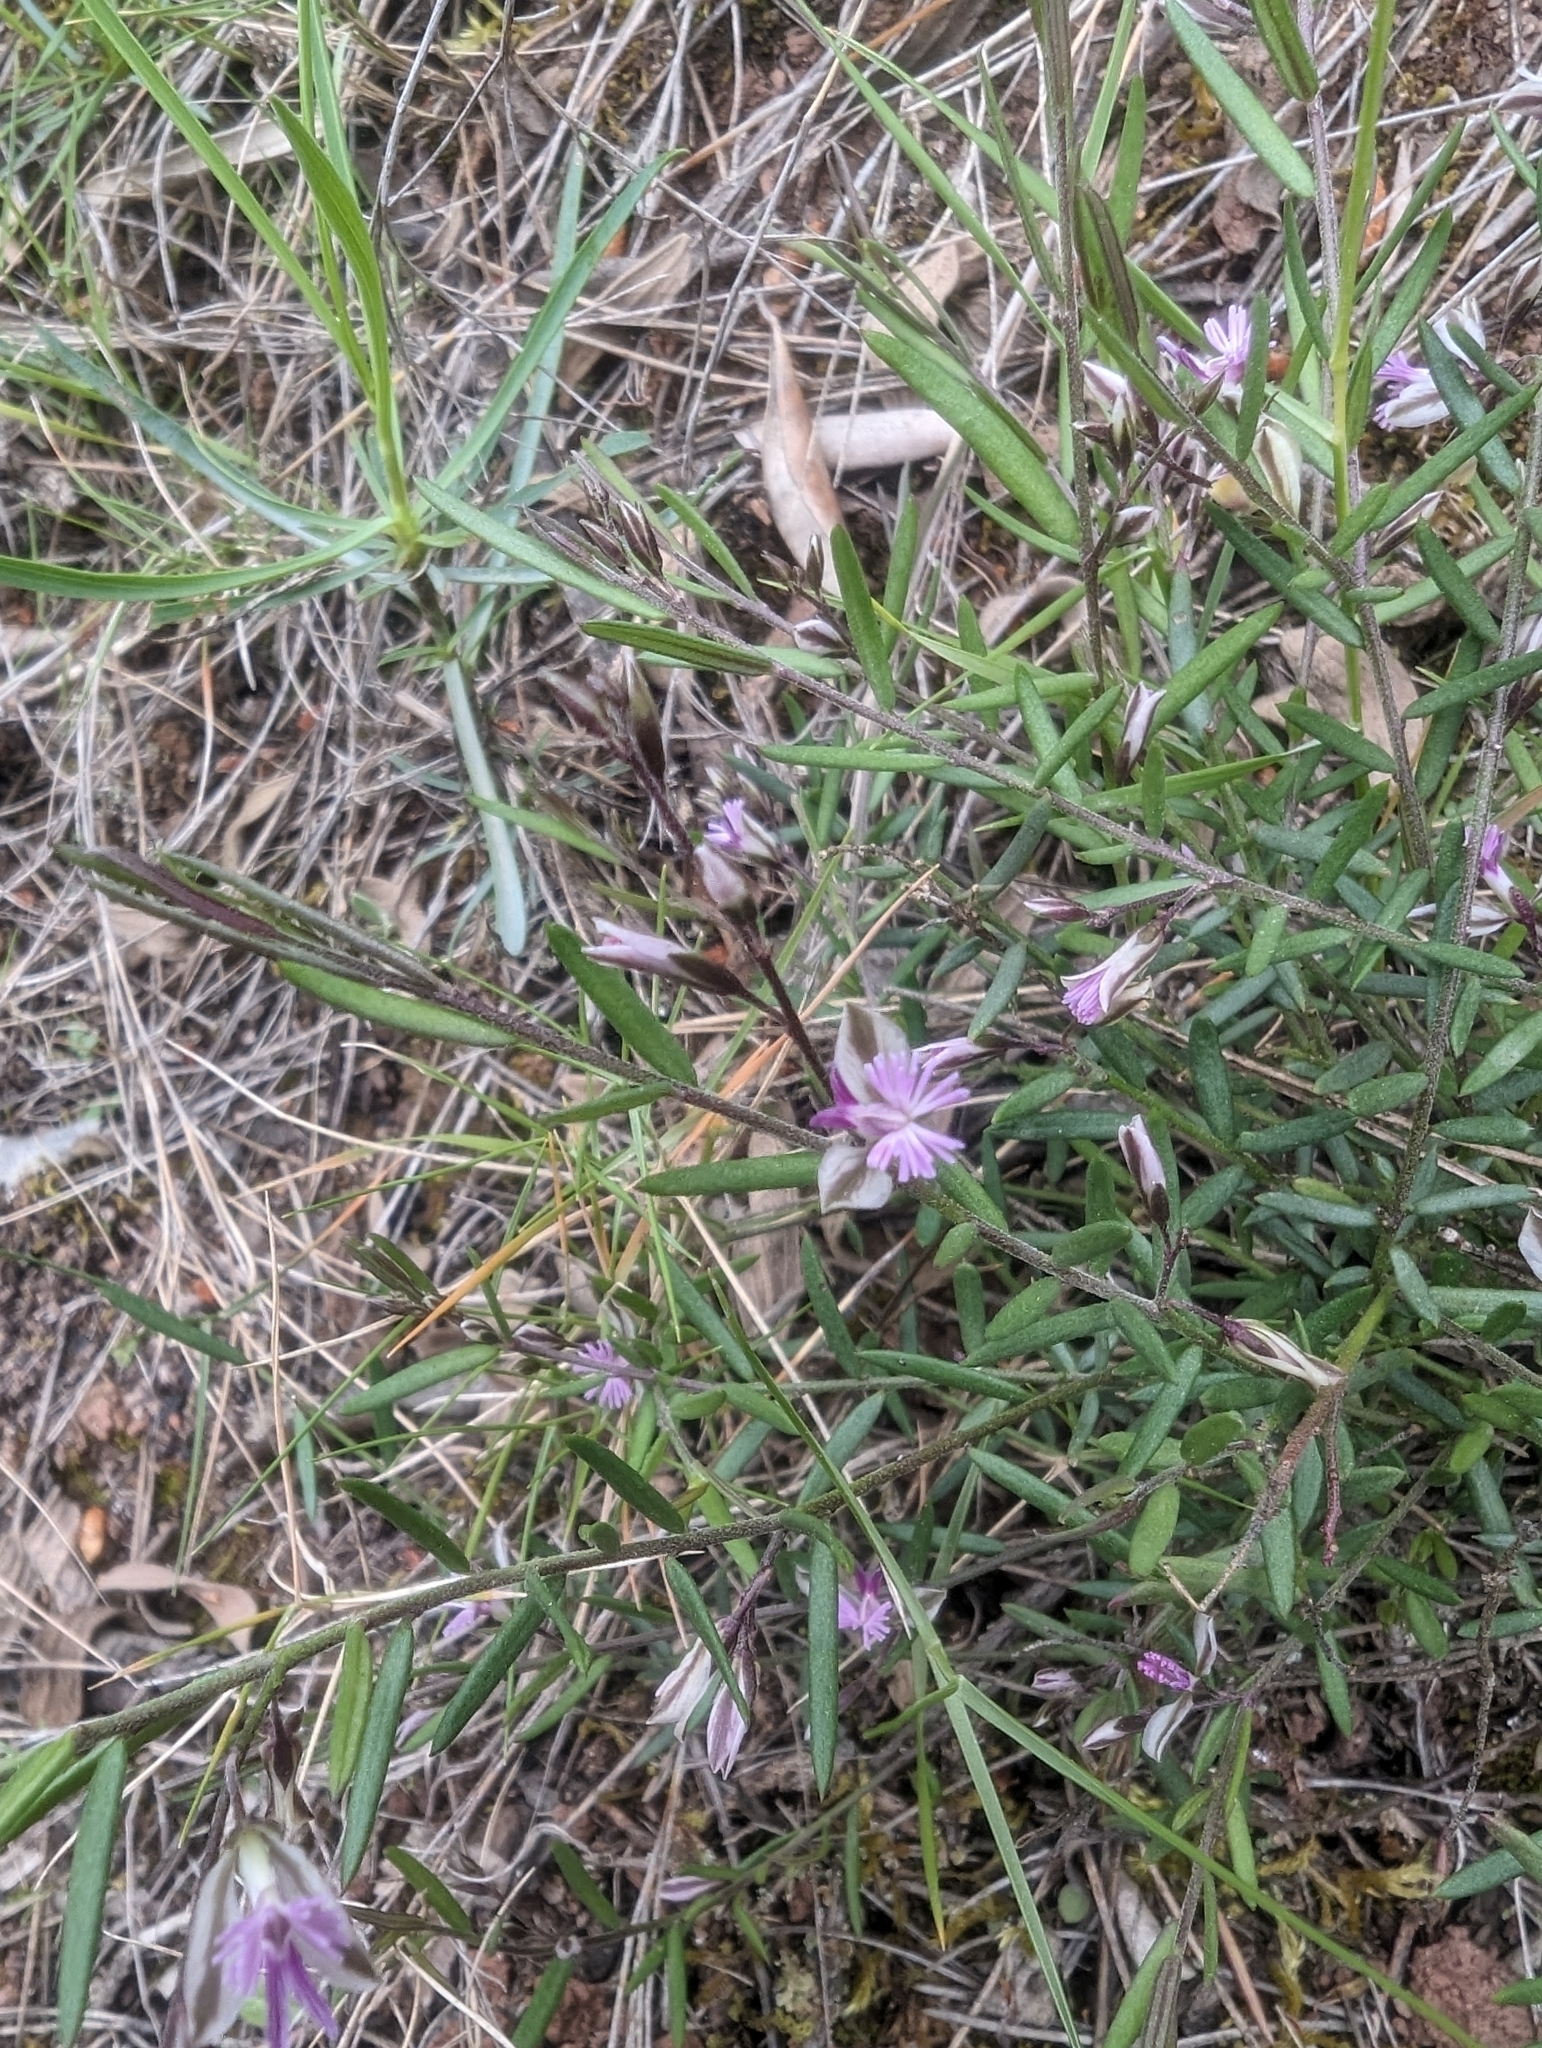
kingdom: Plantae
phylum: Tracheophyta
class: Magnoliopsida
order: Fabales
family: Polygalaceae
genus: Polygala
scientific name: Polygala rupestris
